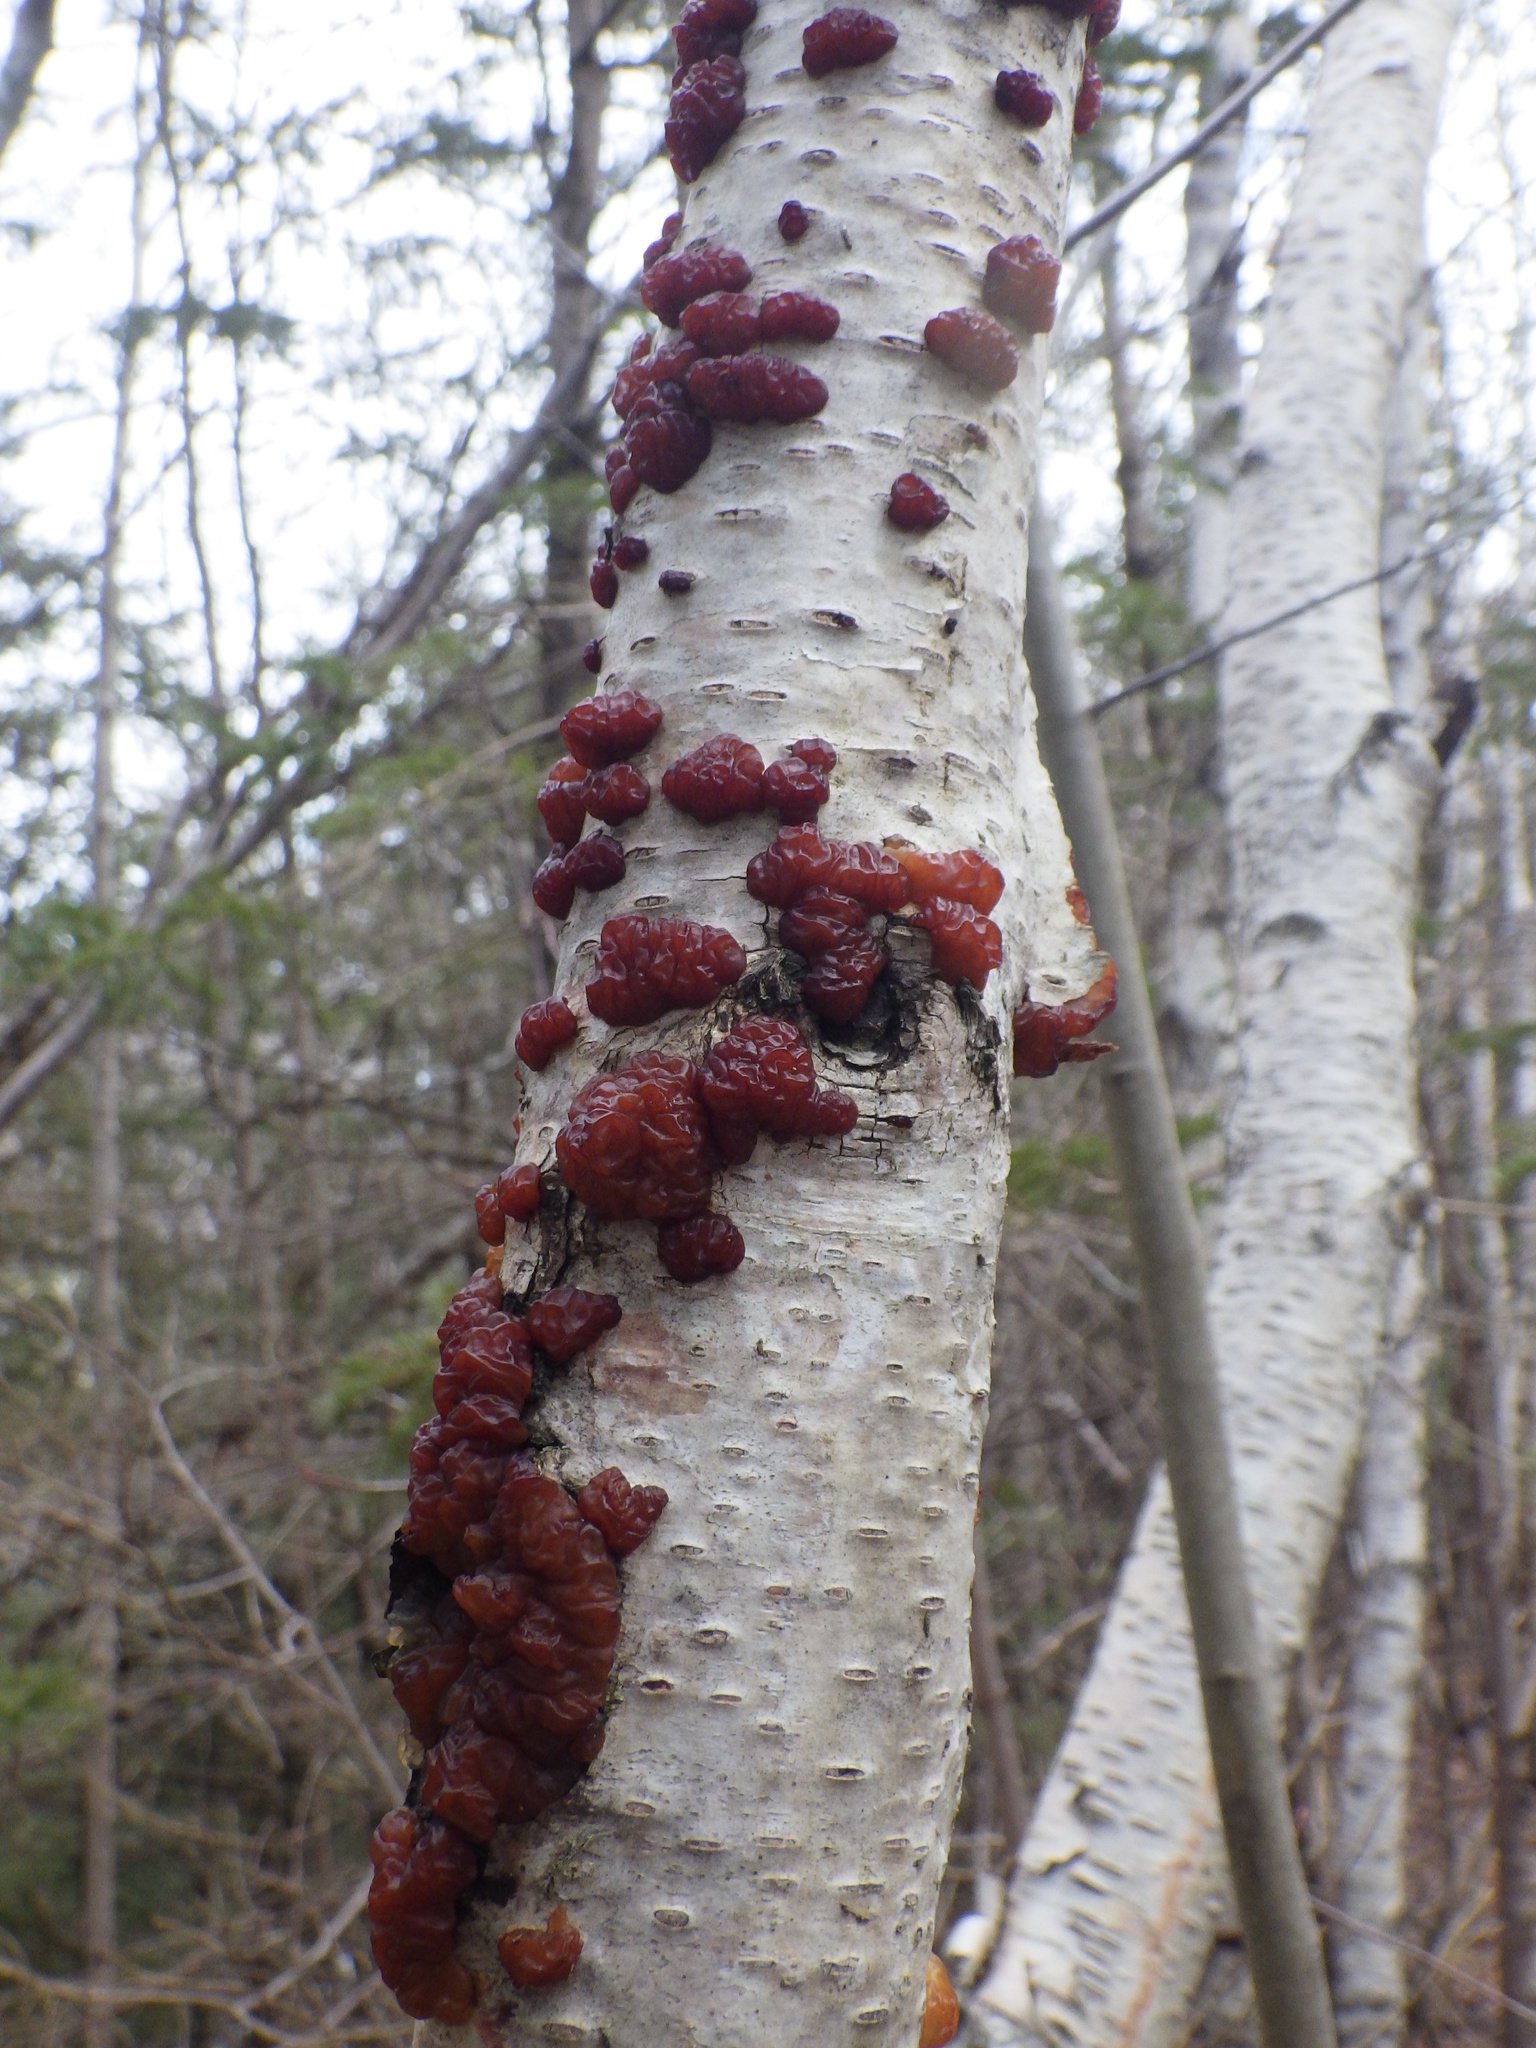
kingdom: Fungi
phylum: Basidiomycota
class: Agaricomycetes
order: Auriculariales
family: Auriculariaceae
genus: Exidia
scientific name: Exidia repanda
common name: Birch jelly
